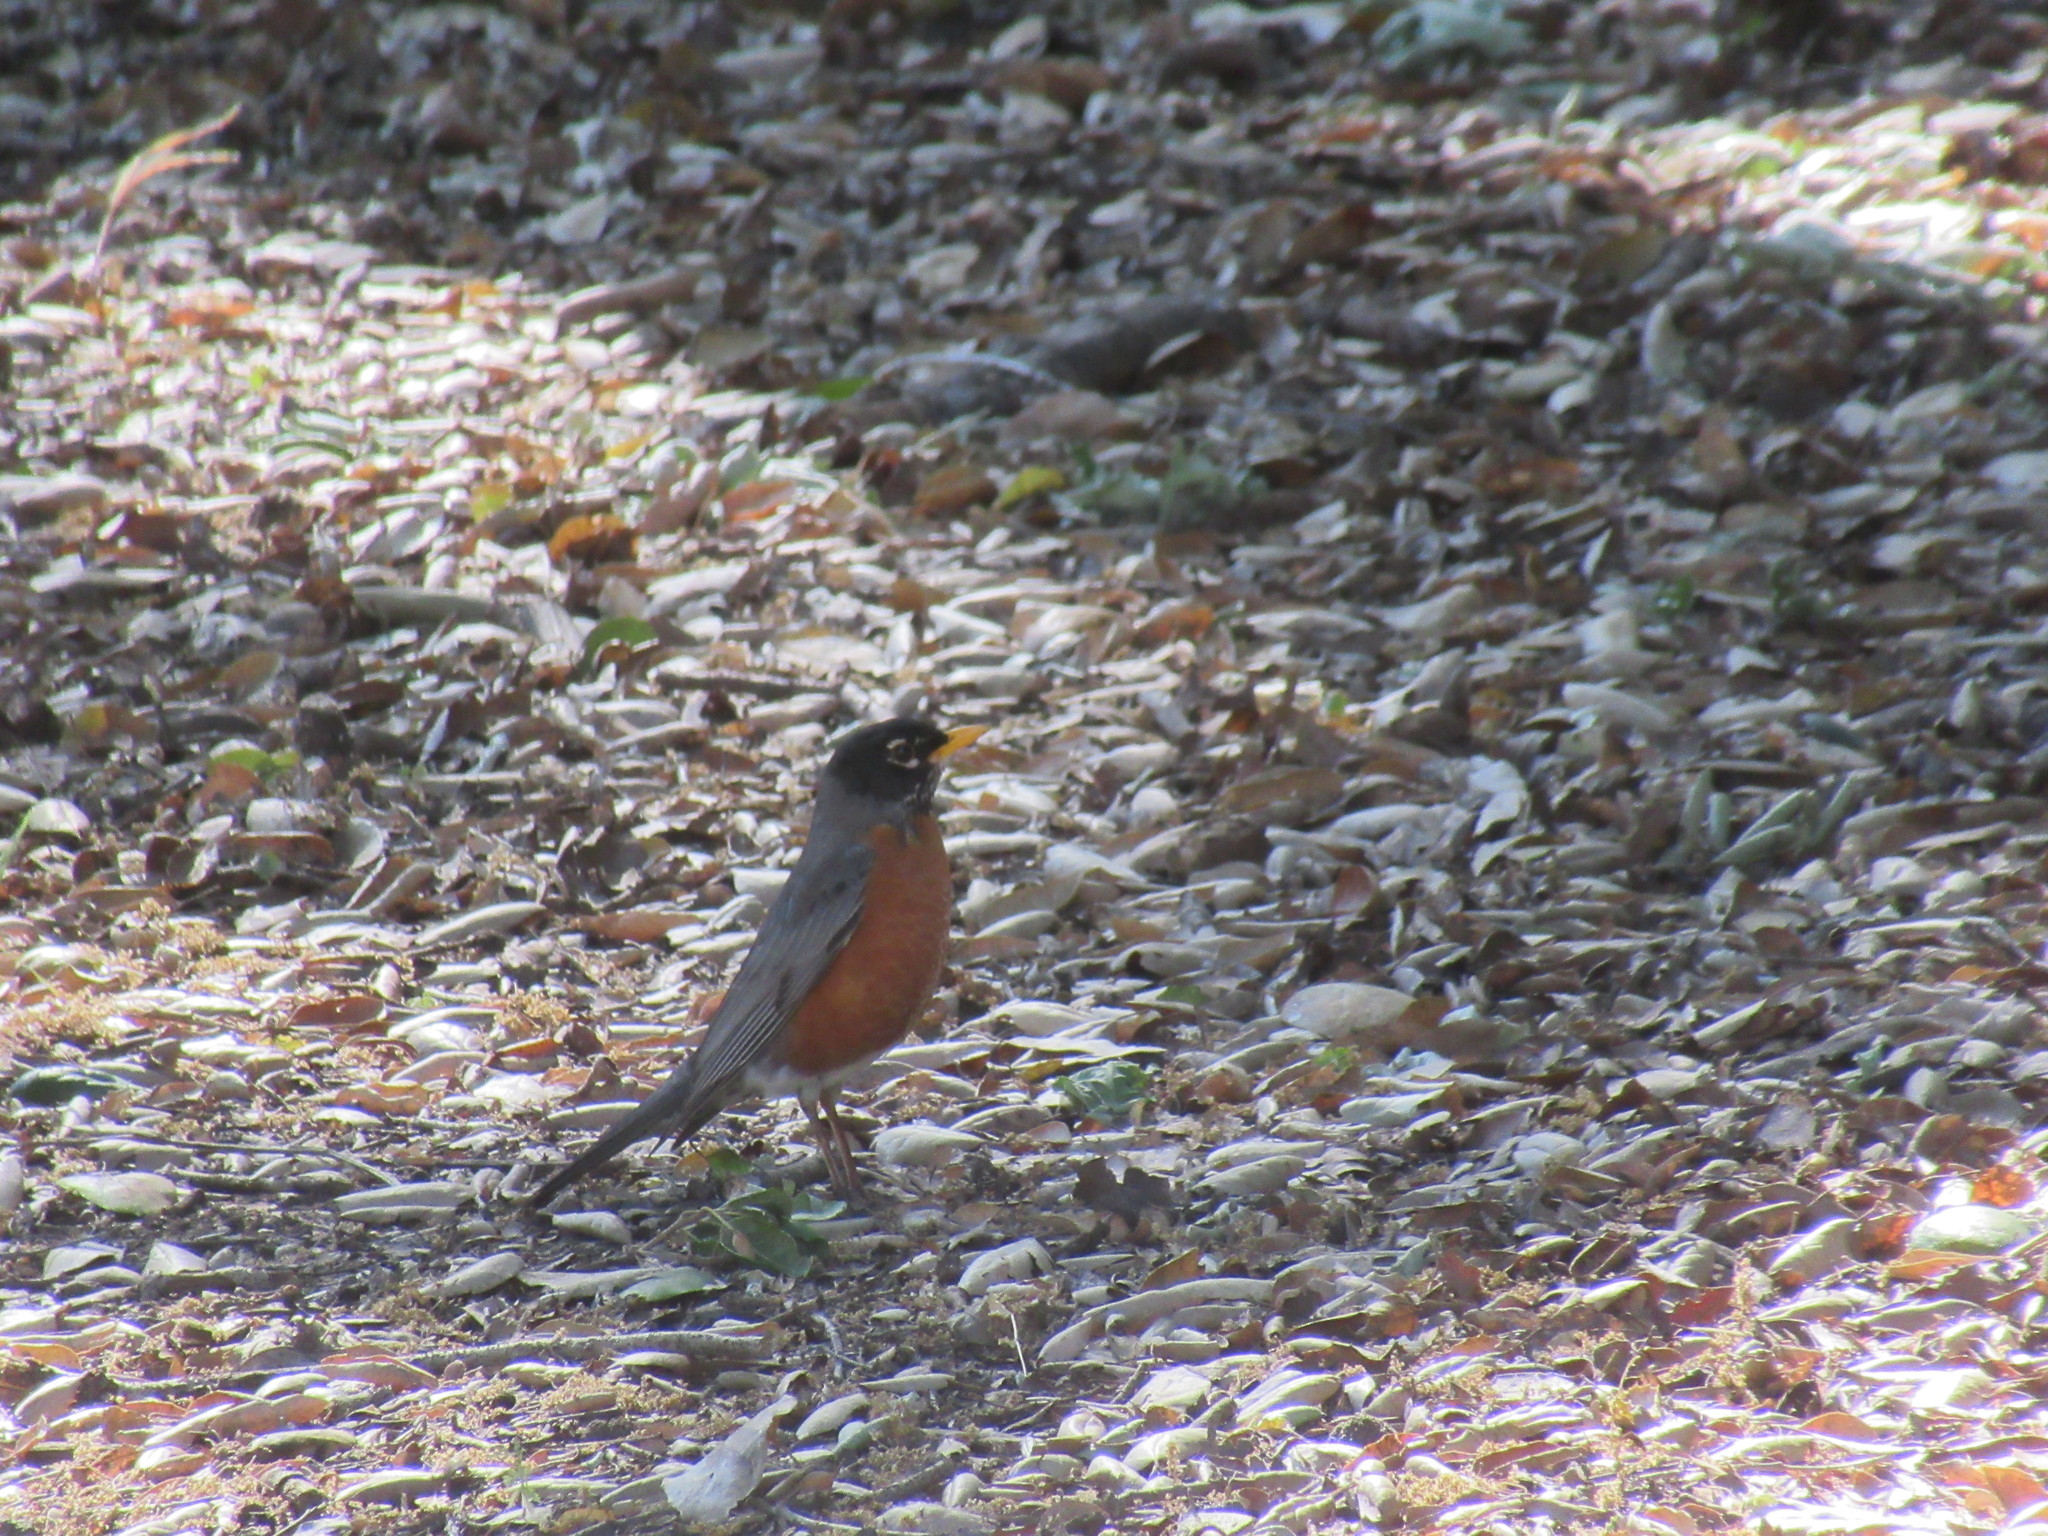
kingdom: Animalia
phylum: Chordata
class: Aves
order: Passeriformes
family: Turdidae
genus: Turdus
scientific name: Turdus migratorius
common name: American robin
